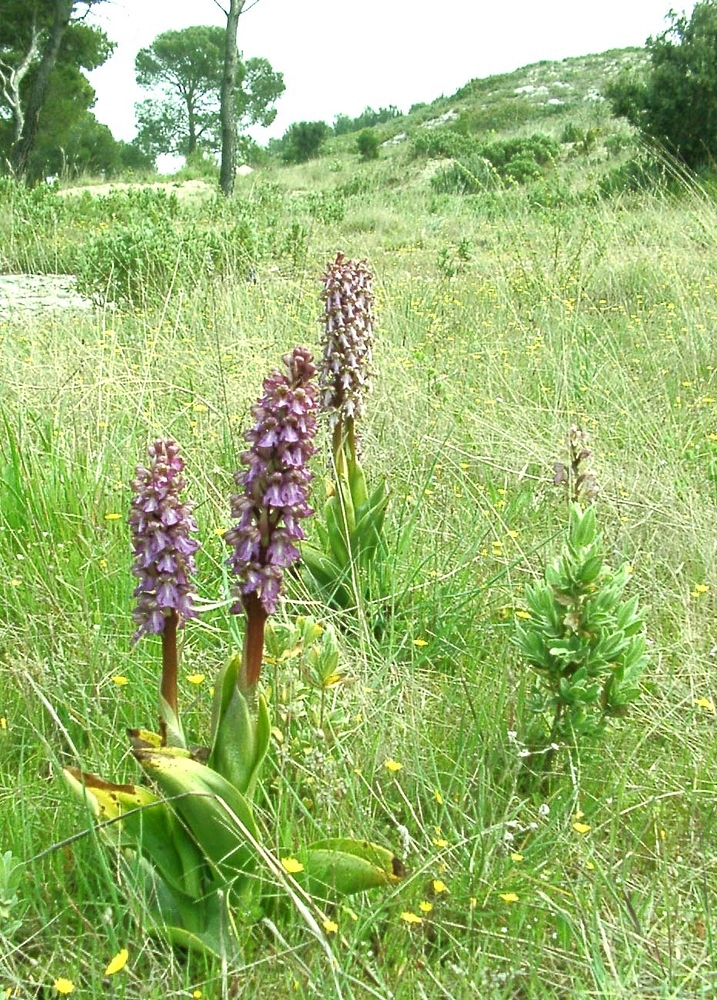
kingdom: Plantae
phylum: Tracheophyta
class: Liliopsida
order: Asparagales
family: Orchidaceae
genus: Himantoglossum
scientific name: Himantoglossum robertianum
